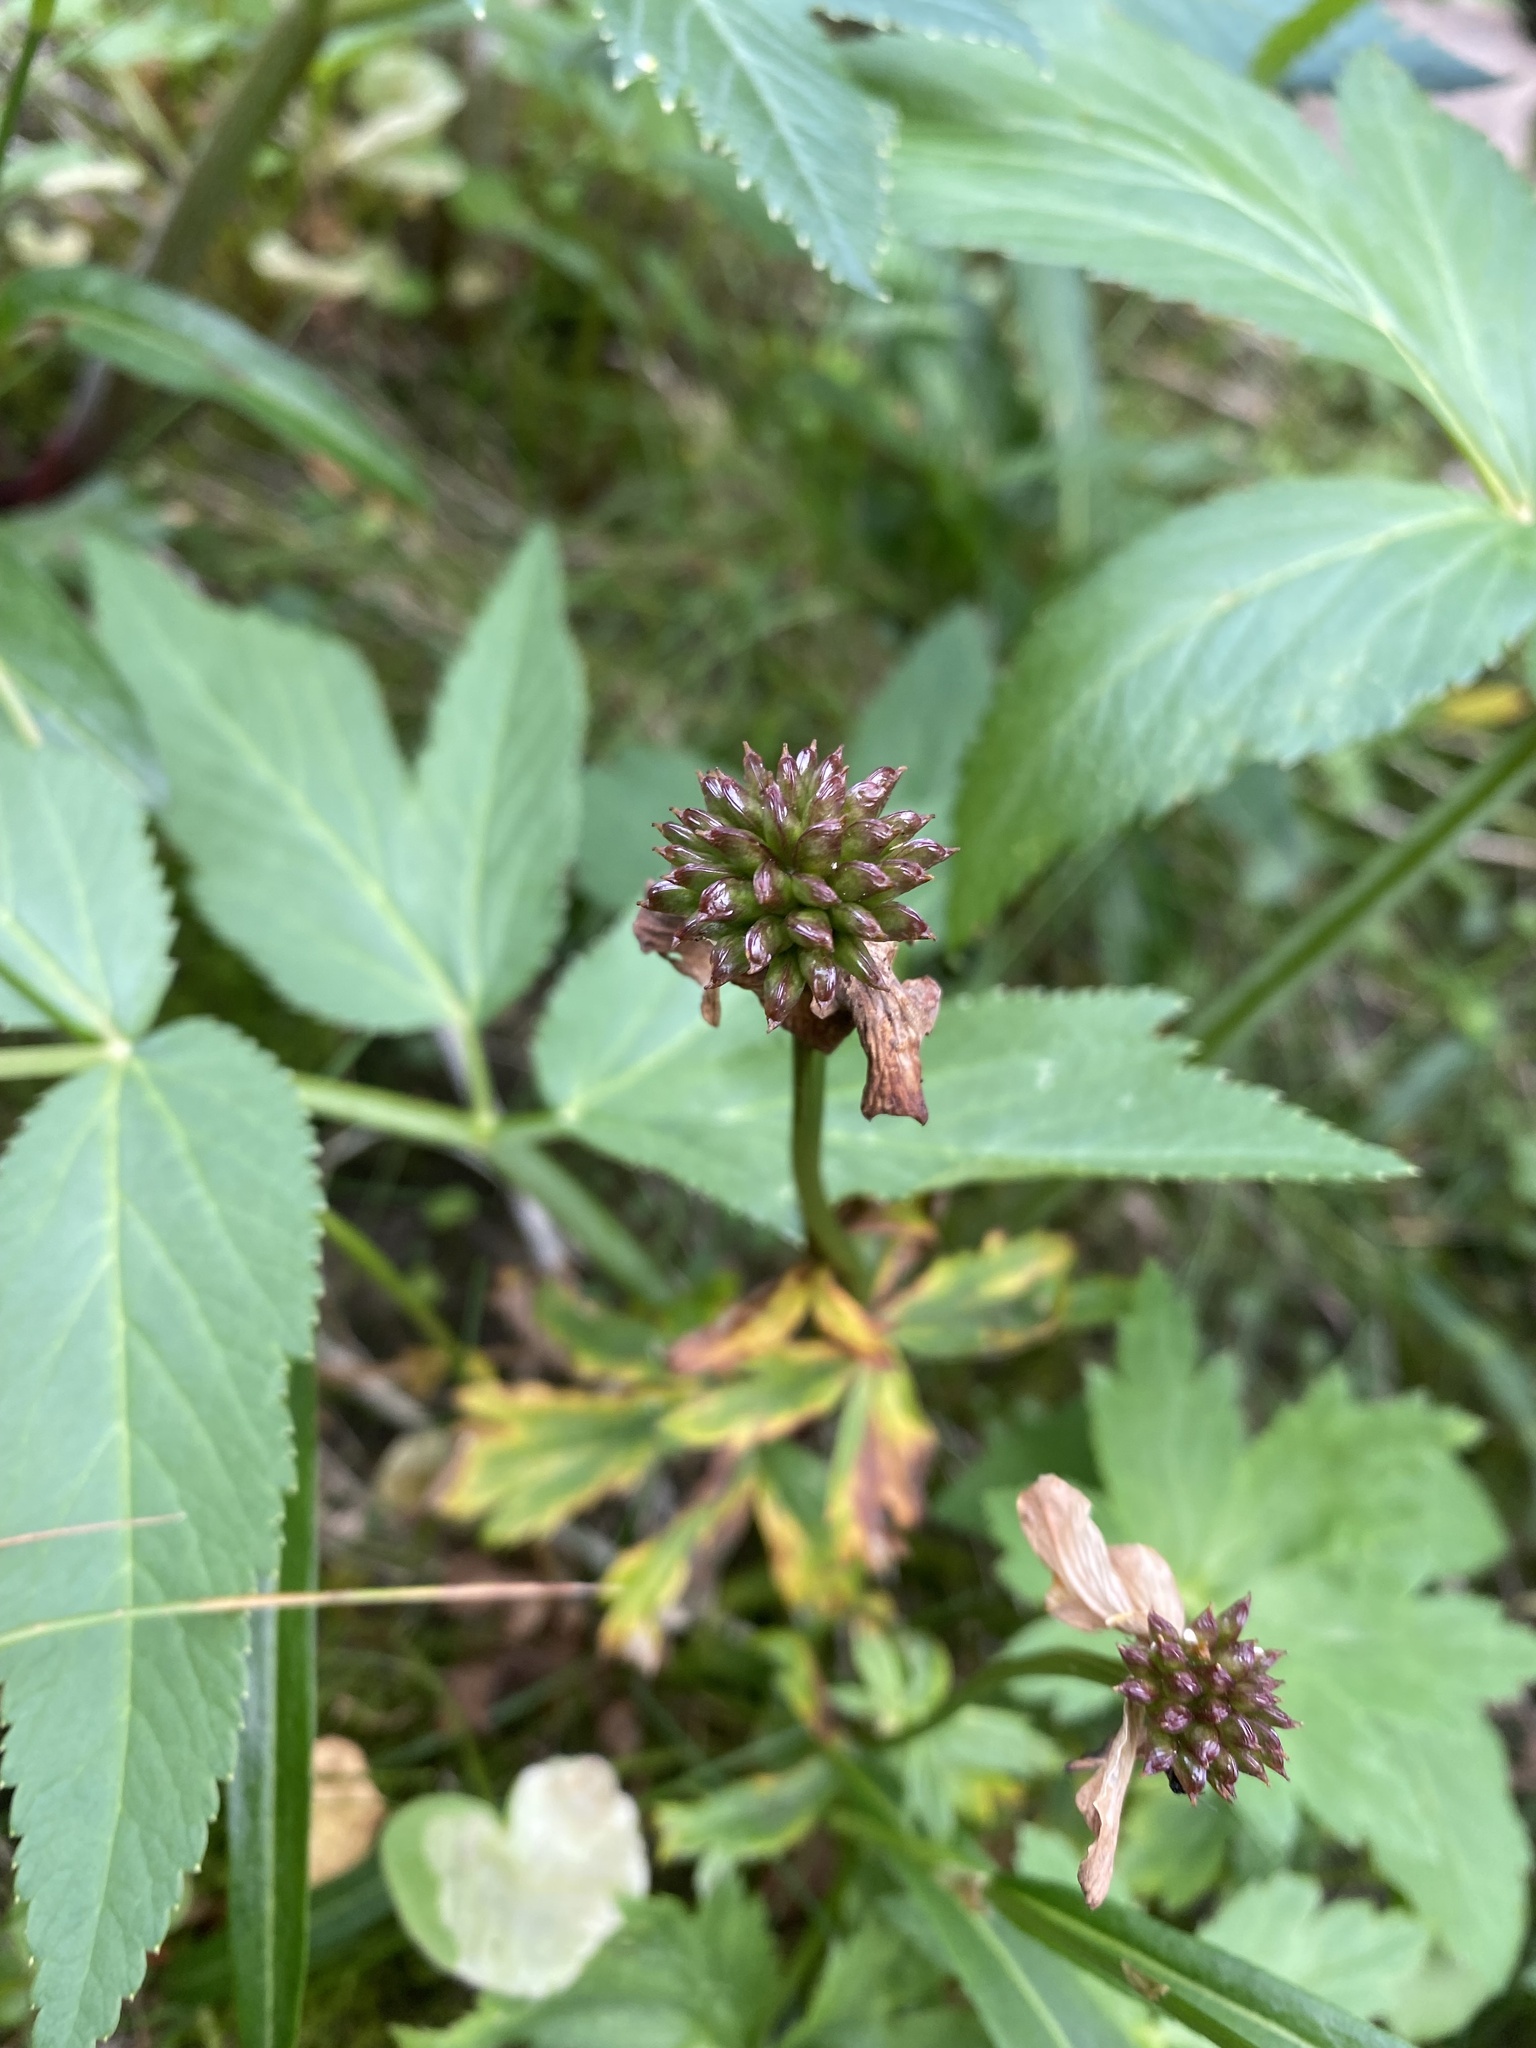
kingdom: Plantae
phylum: Tracheophyta
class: Magnoliopsida
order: Ranunculales
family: Ranunculaceae
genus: Trollius
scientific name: Trollius sibiricus
